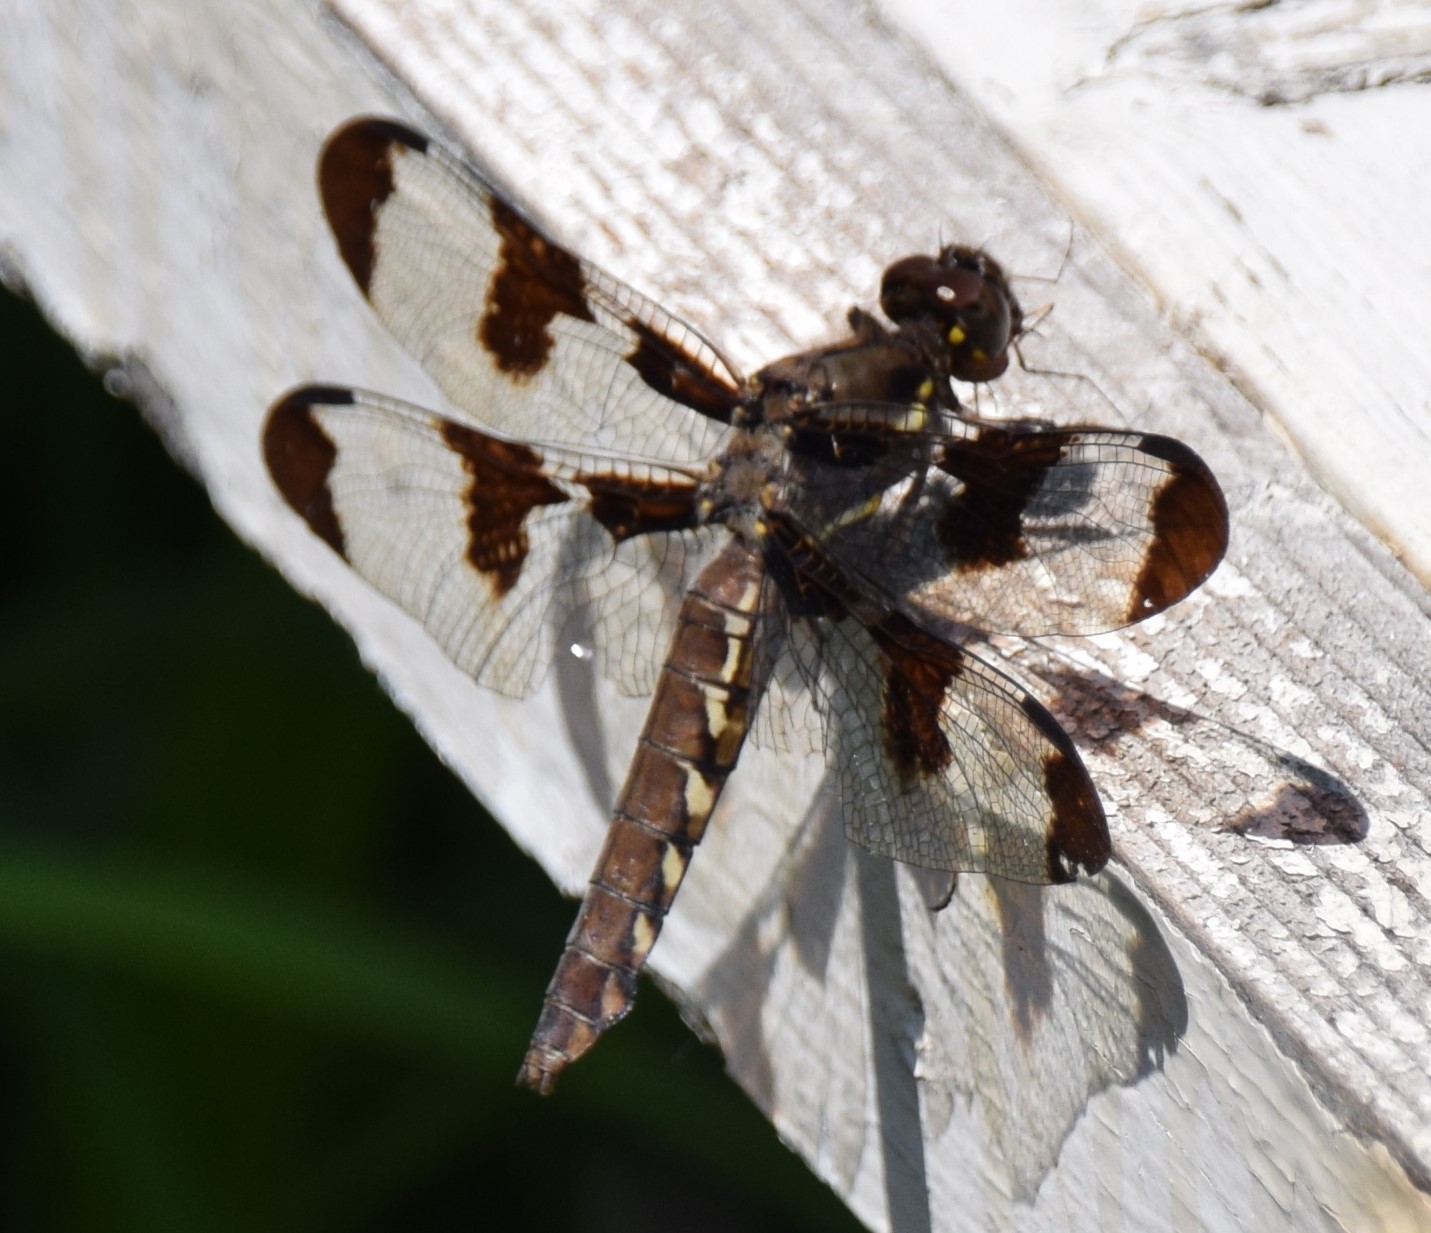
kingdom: Animalia
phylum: Arthropoda
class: Insecta
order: Odonata
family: Libellulidae
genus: Plathemis
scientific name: Plathemis lydia
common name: Common whitetail
